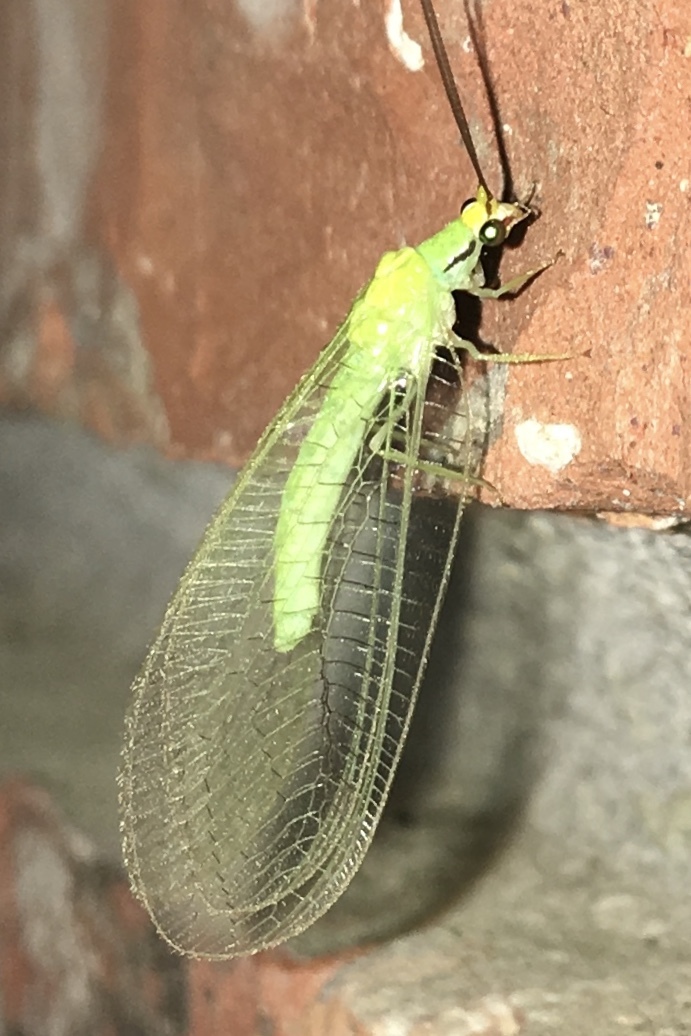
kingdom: Animalia
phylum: Arthropoda
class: Insecta
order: Neuroptera
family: Chrysopidae
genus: Leucochrysa
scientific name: Leucochrysa pavida
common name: Lichen-carrying green lacewing
